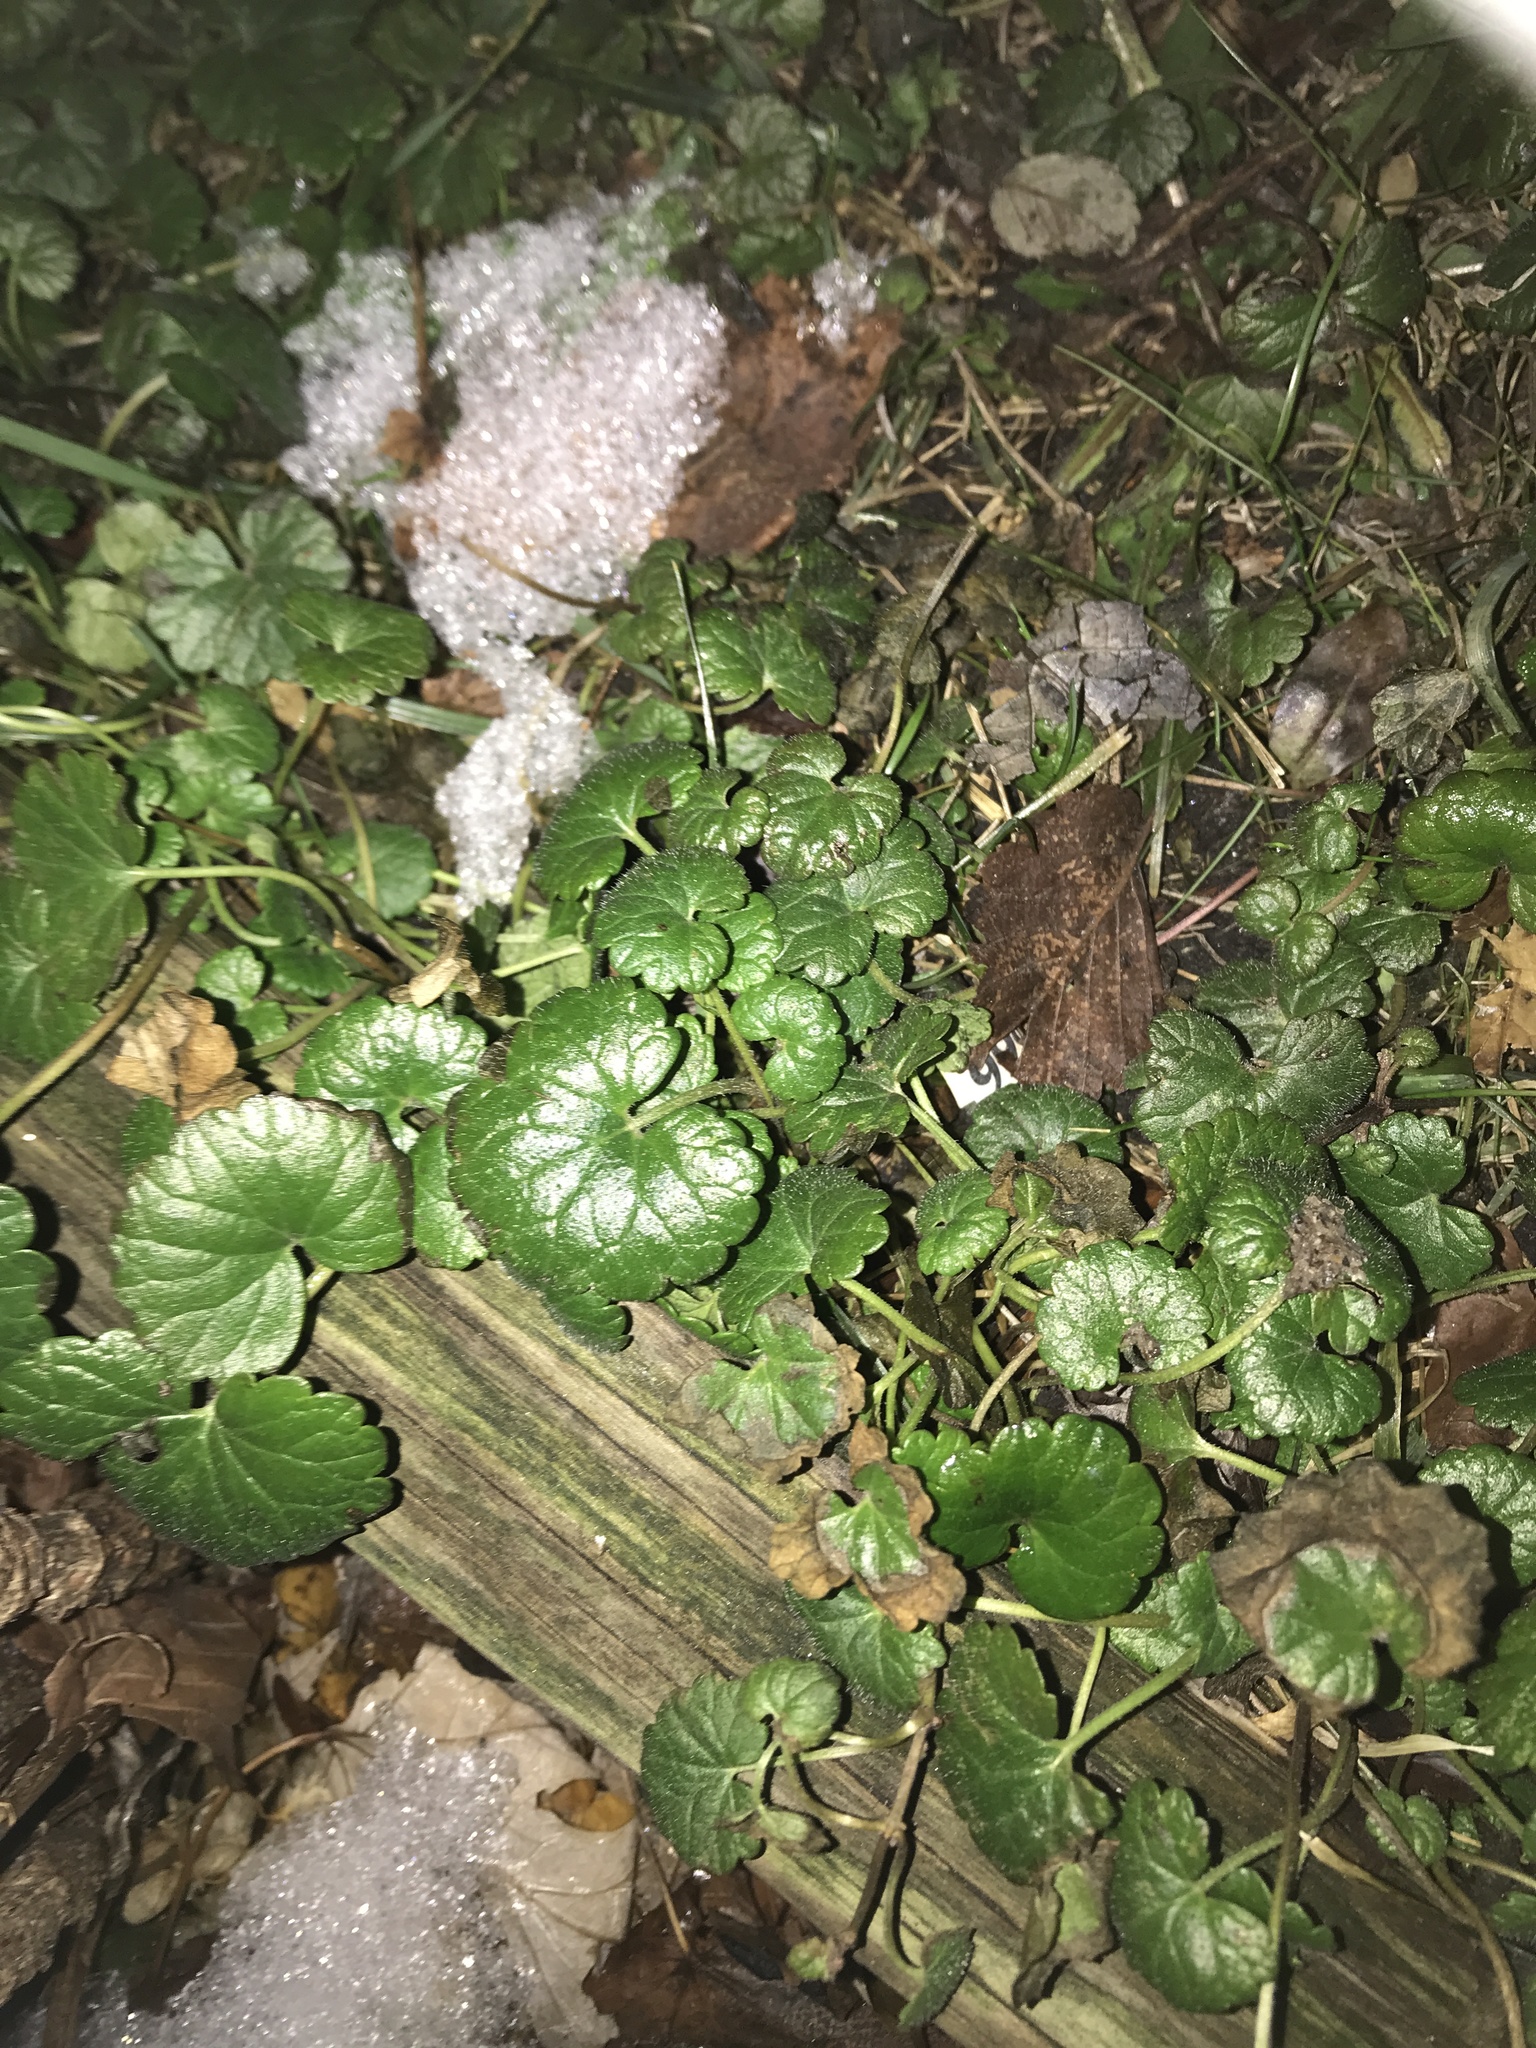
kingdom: Plantae
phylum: Tracheophyta
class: Magnoliopsida
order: Lamiales
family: Lamiaceae
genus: Glechoma
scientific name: Glechoma hederacea
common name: Ground ivy
